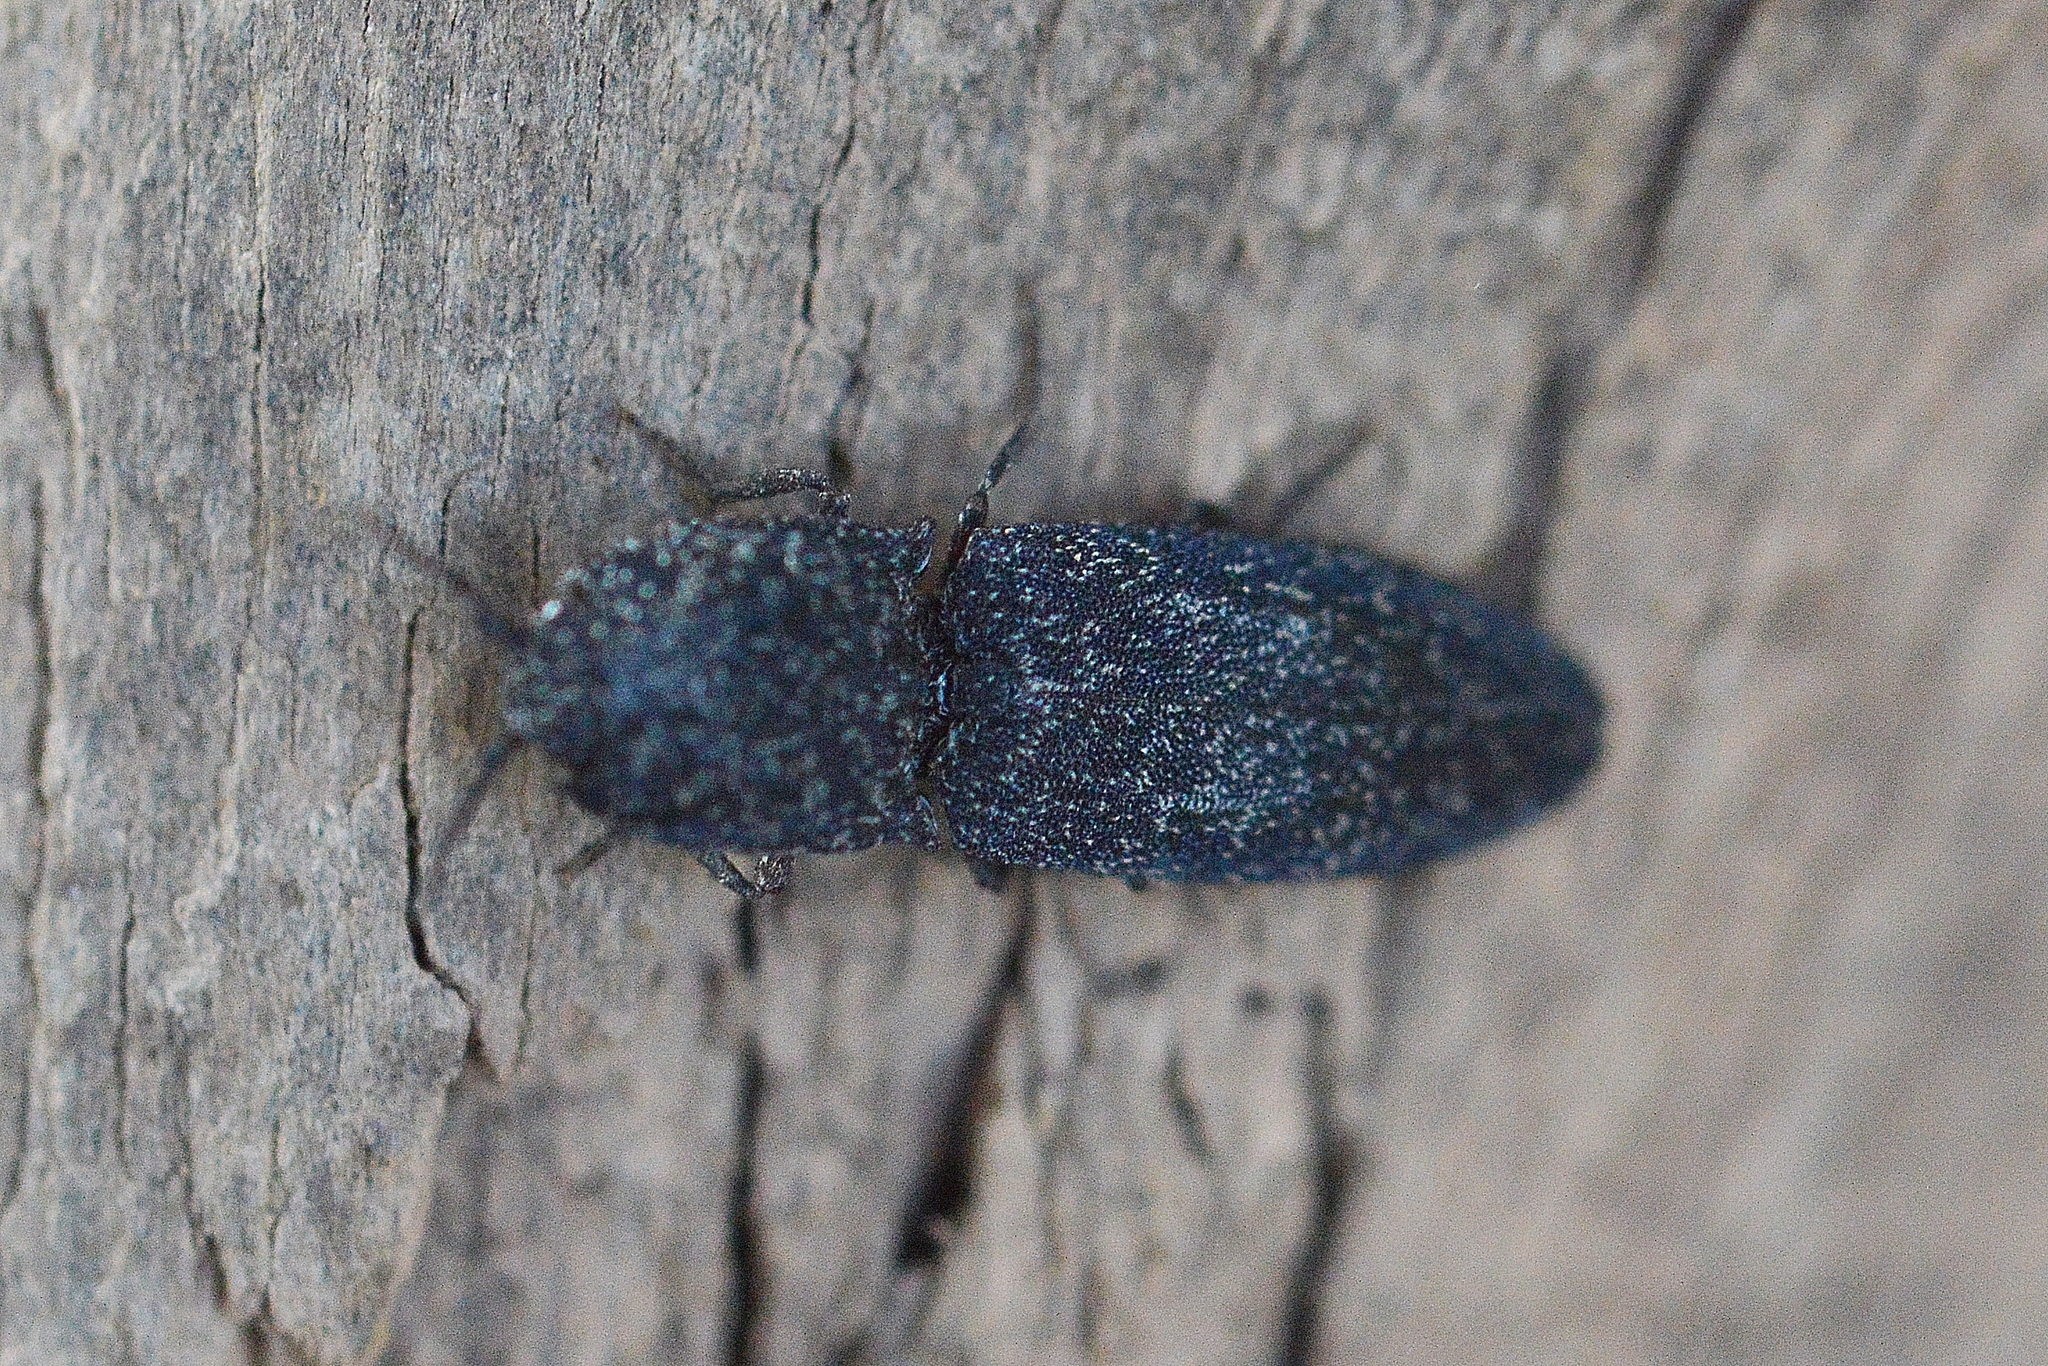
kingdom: Animalia
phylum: Arthropoda
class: Insecta
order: Coleoptera
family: Elateridae
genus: Lacon
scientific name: Lacon punctatus
